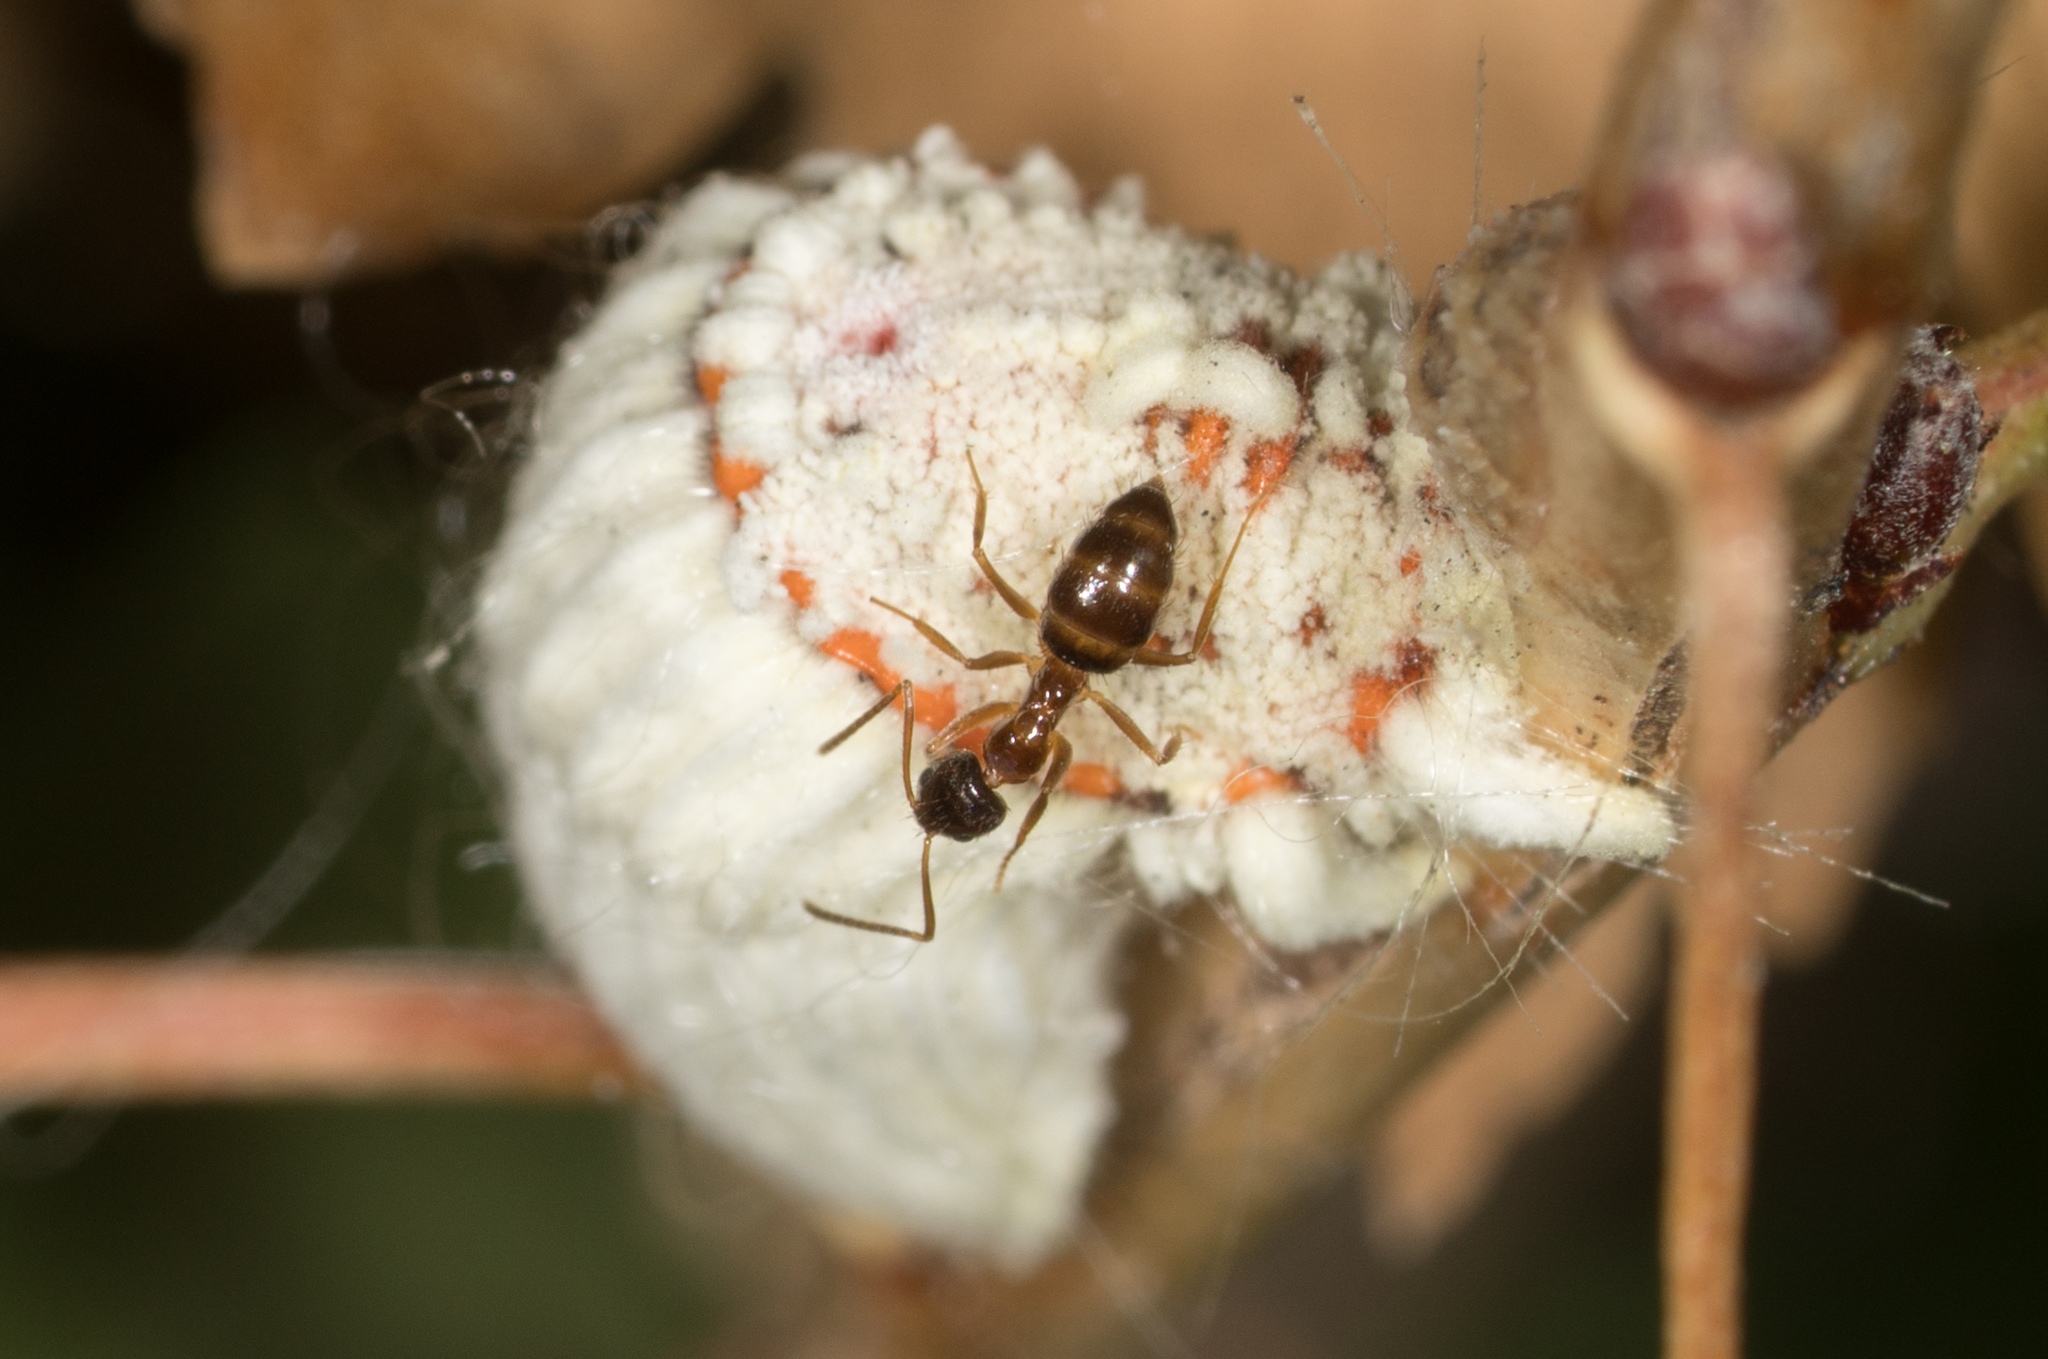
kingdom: Animalia
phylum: Arthropoda
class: Insecta
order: Hemiptera
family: Margarodidae
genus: Icerya
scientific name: Icerya purchasi
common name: Cottony cushion scale
